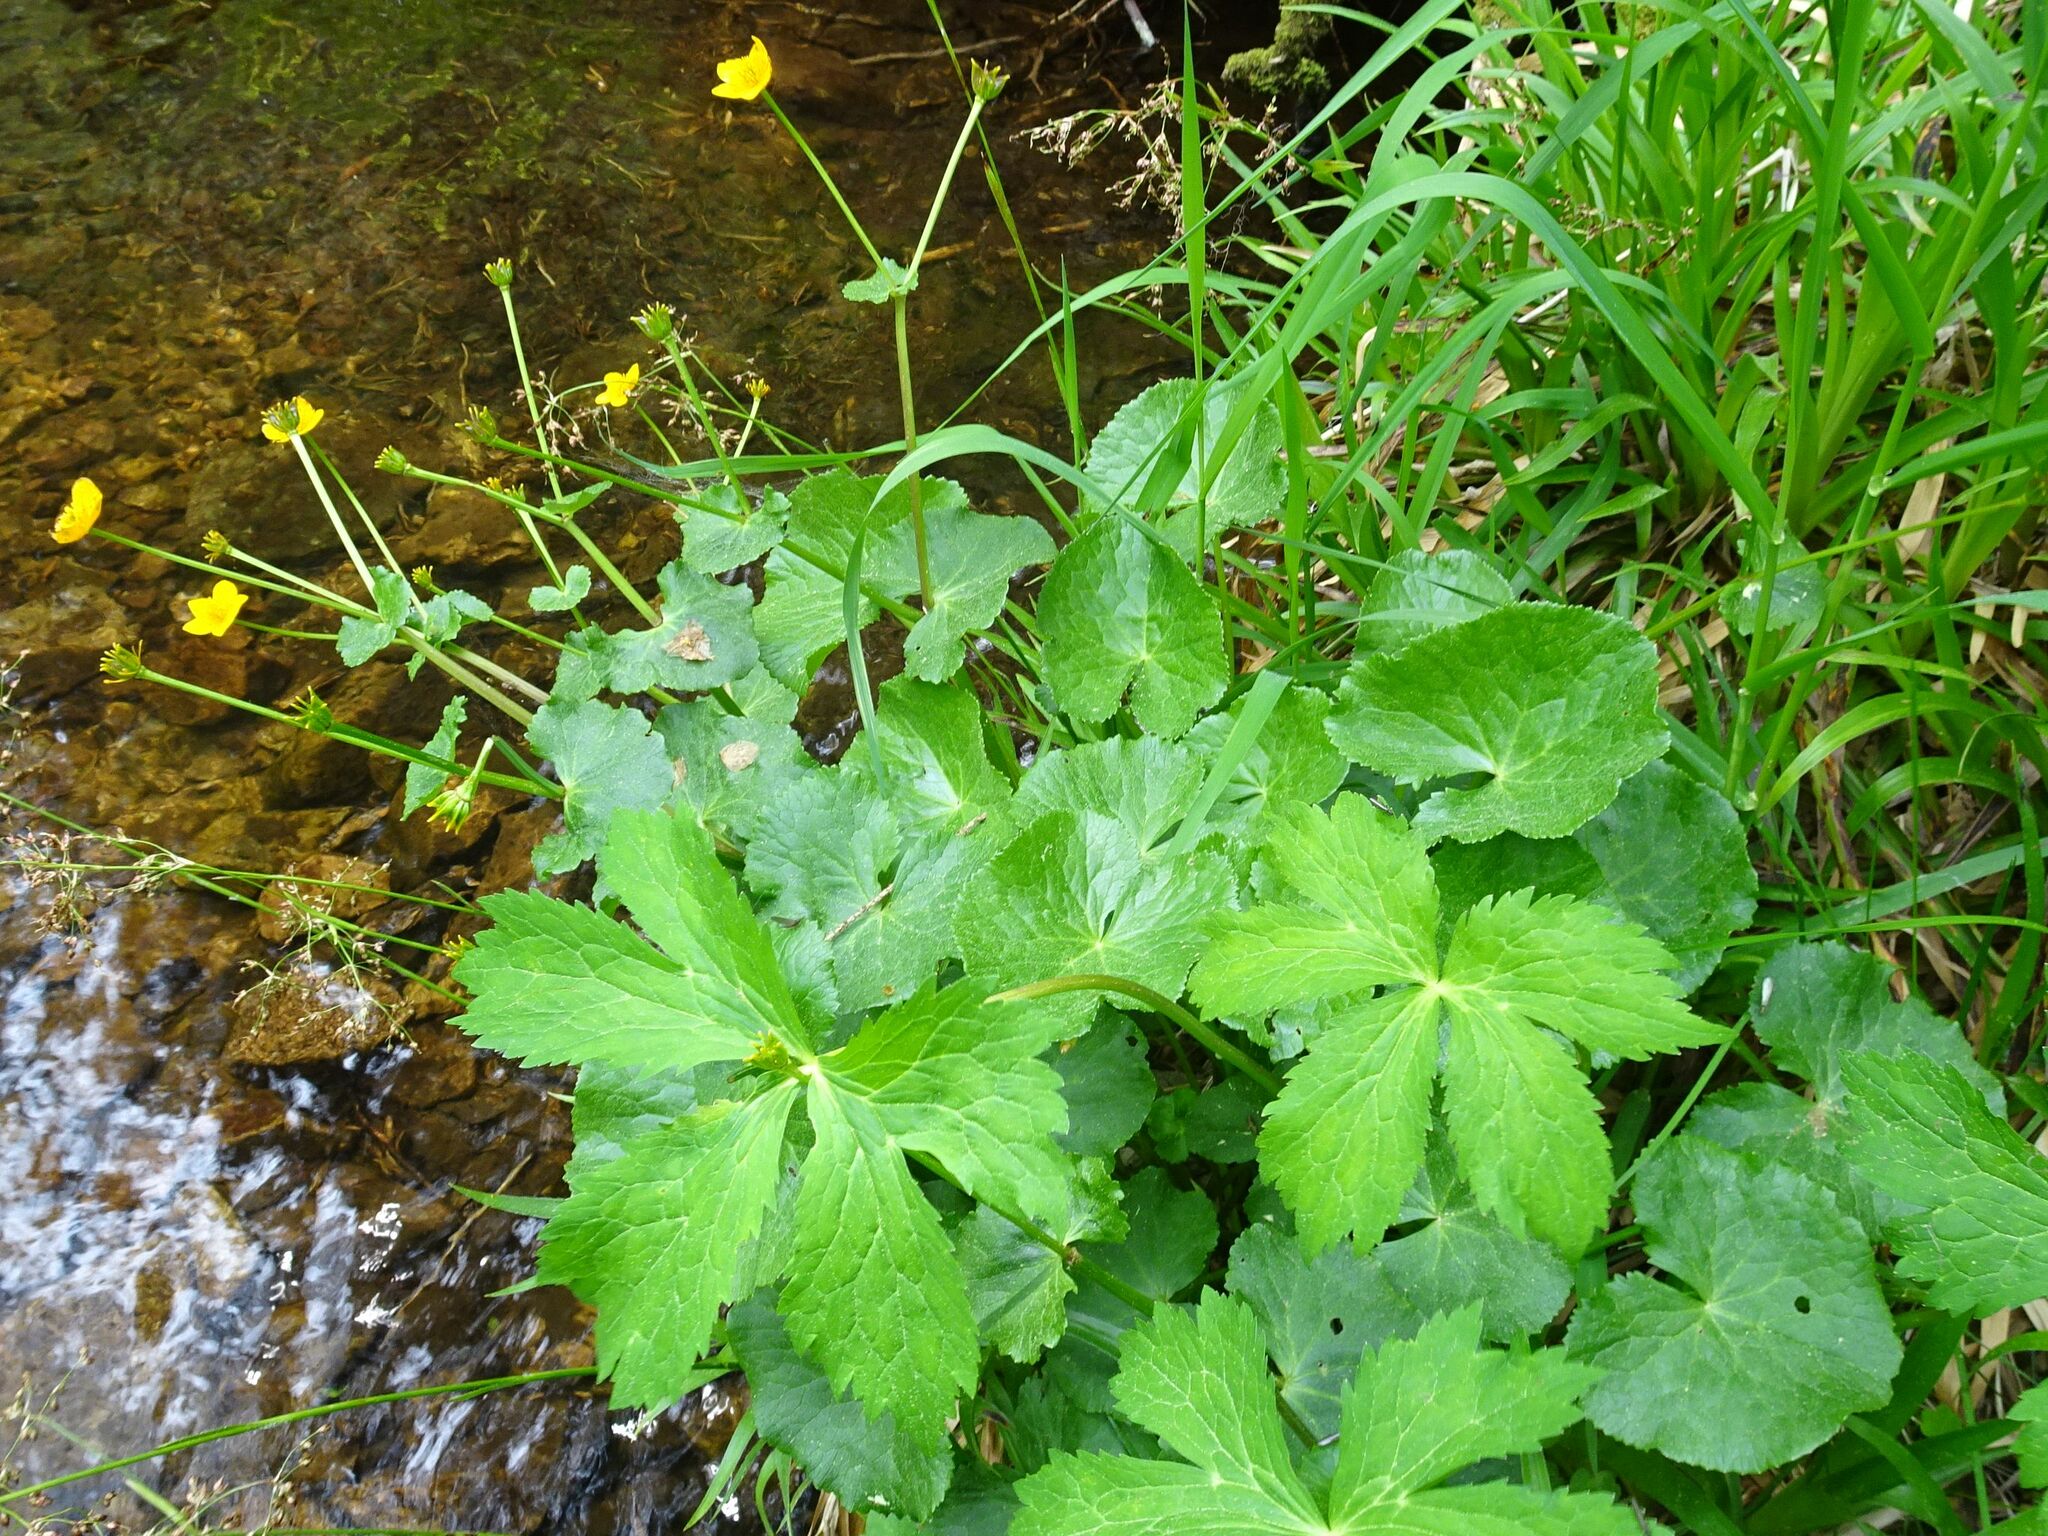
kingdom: Plantae
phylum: Tracheophyta
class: Magnoliopsida
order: Ranunculales
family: Ranunculaceae
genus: Caltha
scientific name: Caltha palustris
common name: Marsh marigold
